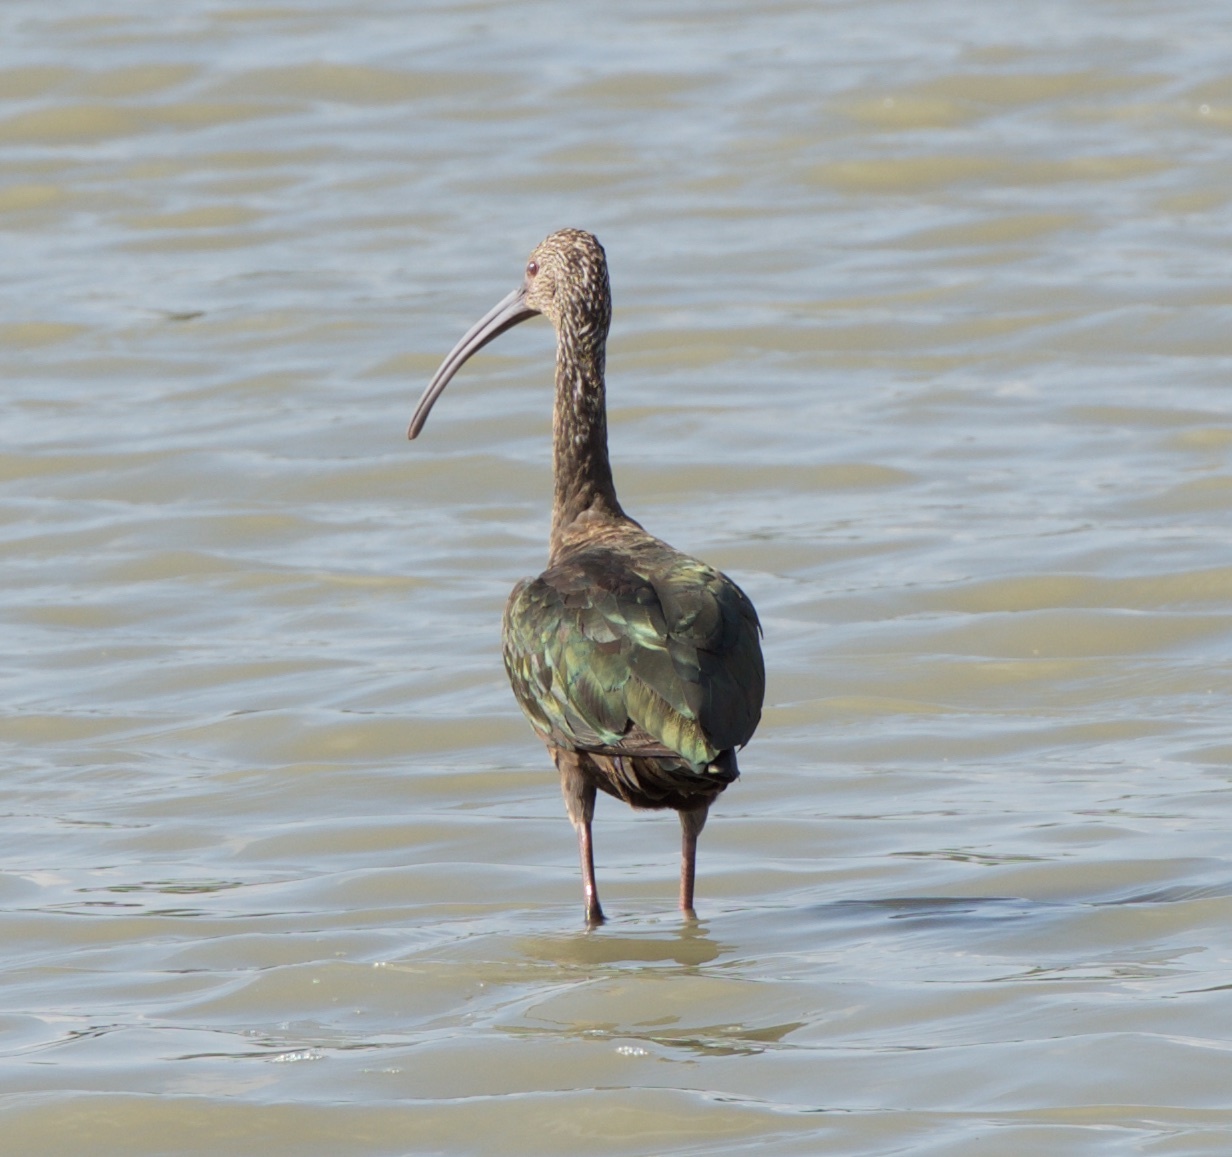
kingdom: Animalia
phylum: Chordata
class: Aves
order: Pelecaniformes
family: Threskiornithidae
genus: Plegadis
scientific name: Plegadis chihi
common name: White-faced ibis
